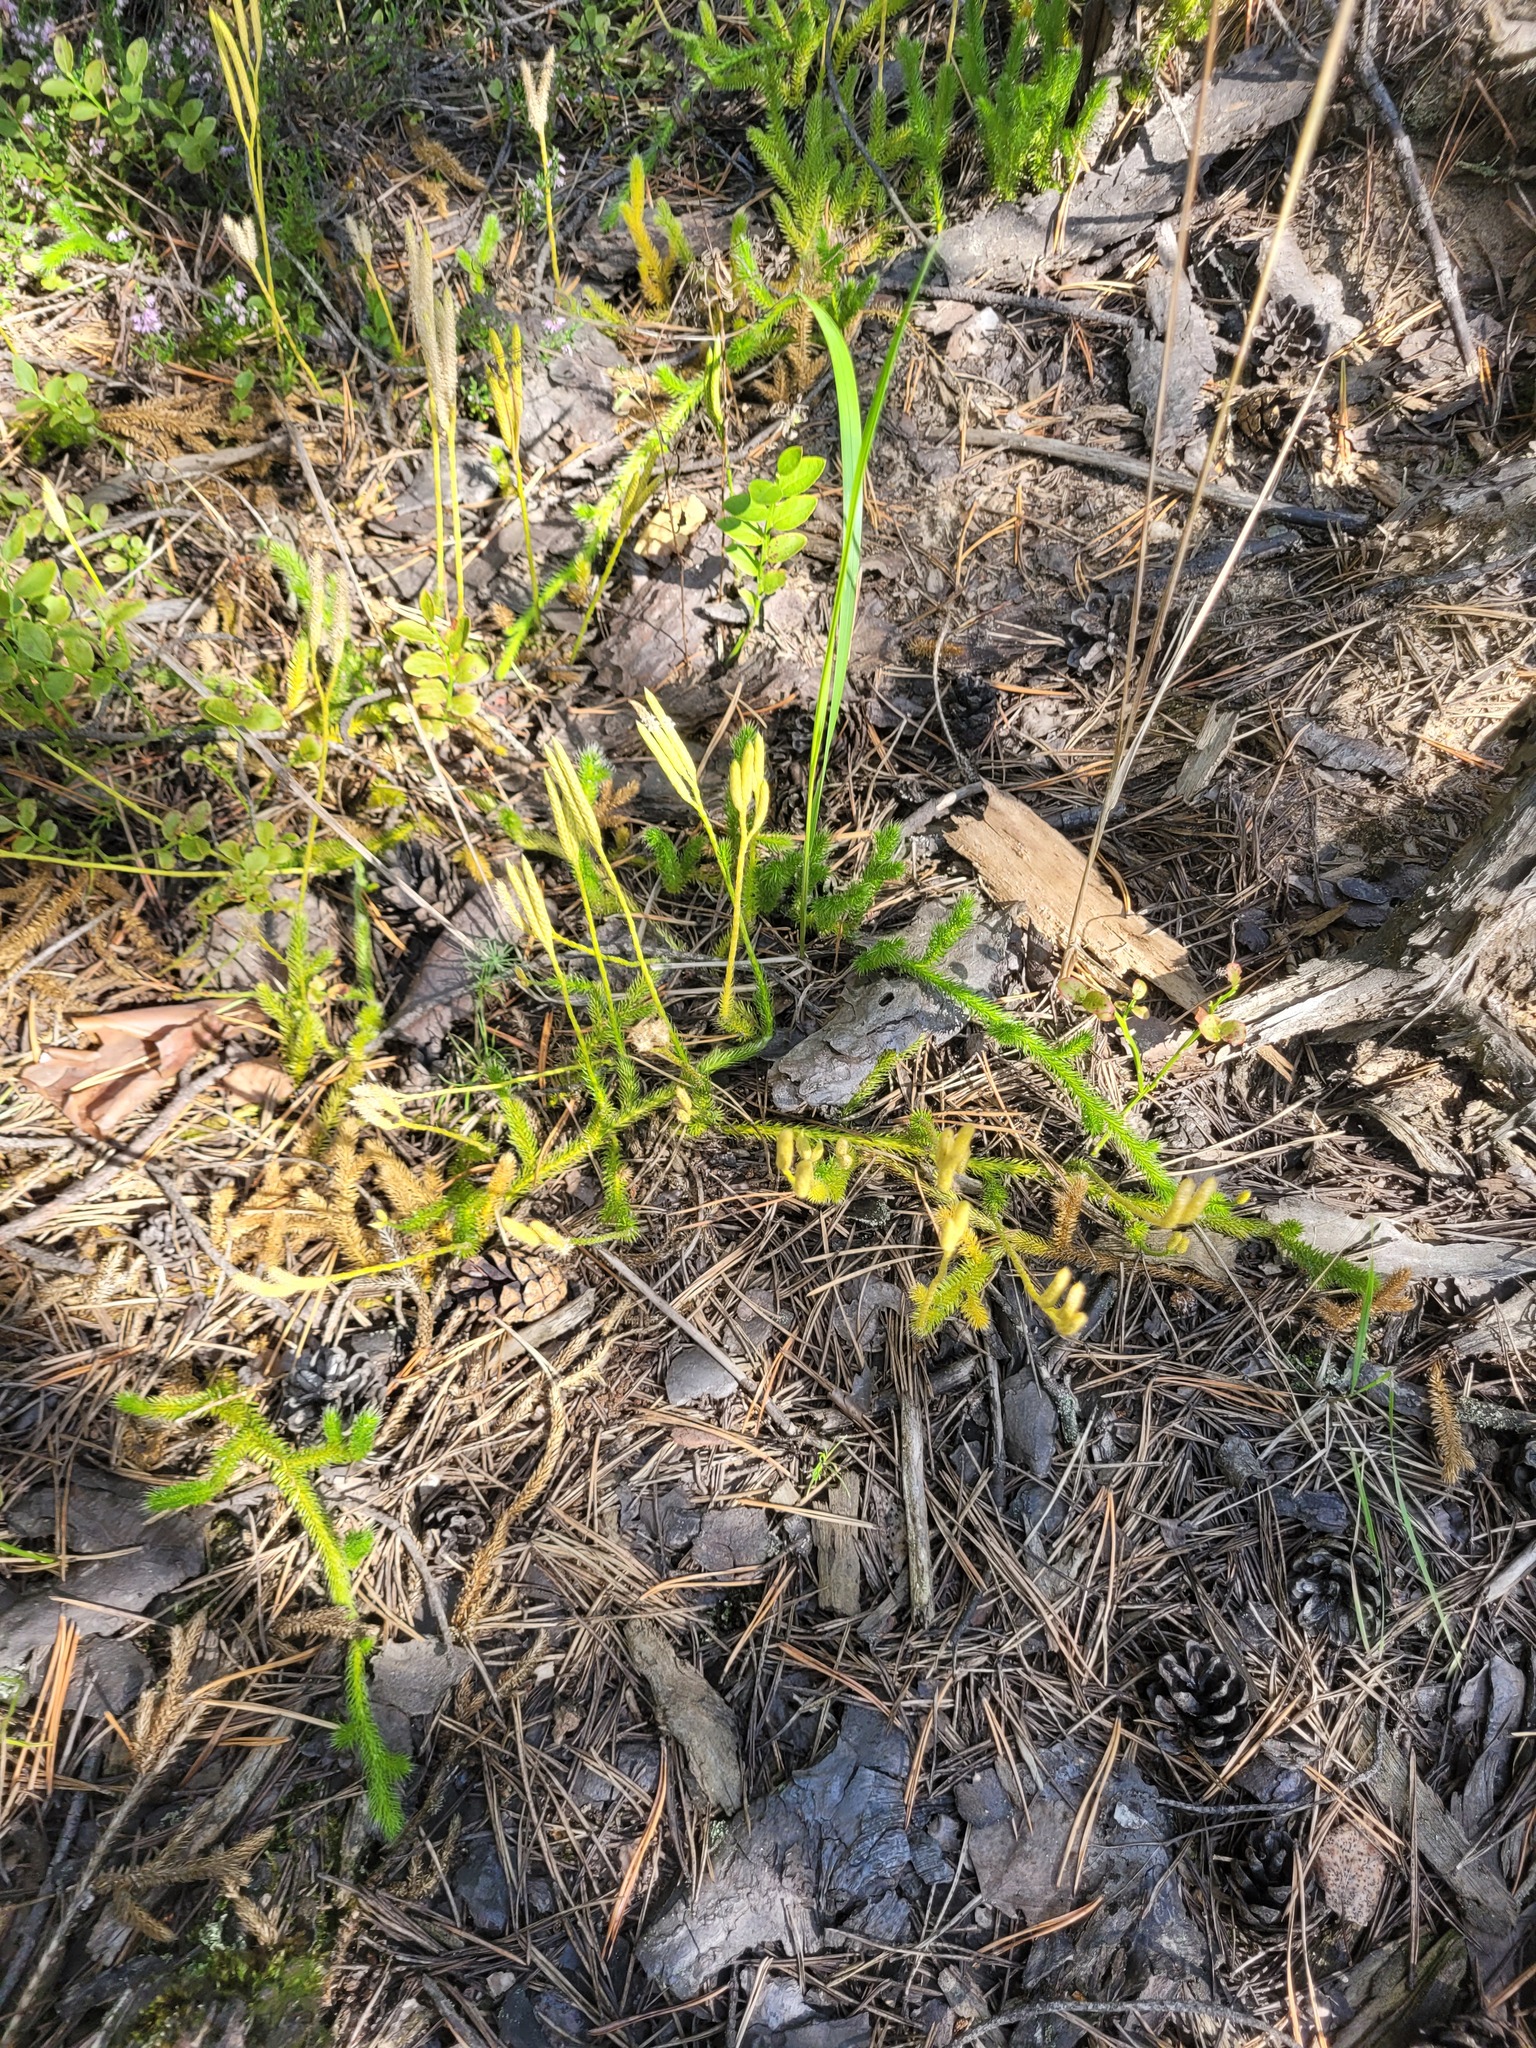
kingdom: Plantae
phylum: Tracheophyta
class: Lycopodiopsida
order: Lycopodiales
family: Lycopodiaceae
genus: Lycopodium
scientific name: Lycopodium clavatum
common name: Stag's-horn clubmoss
